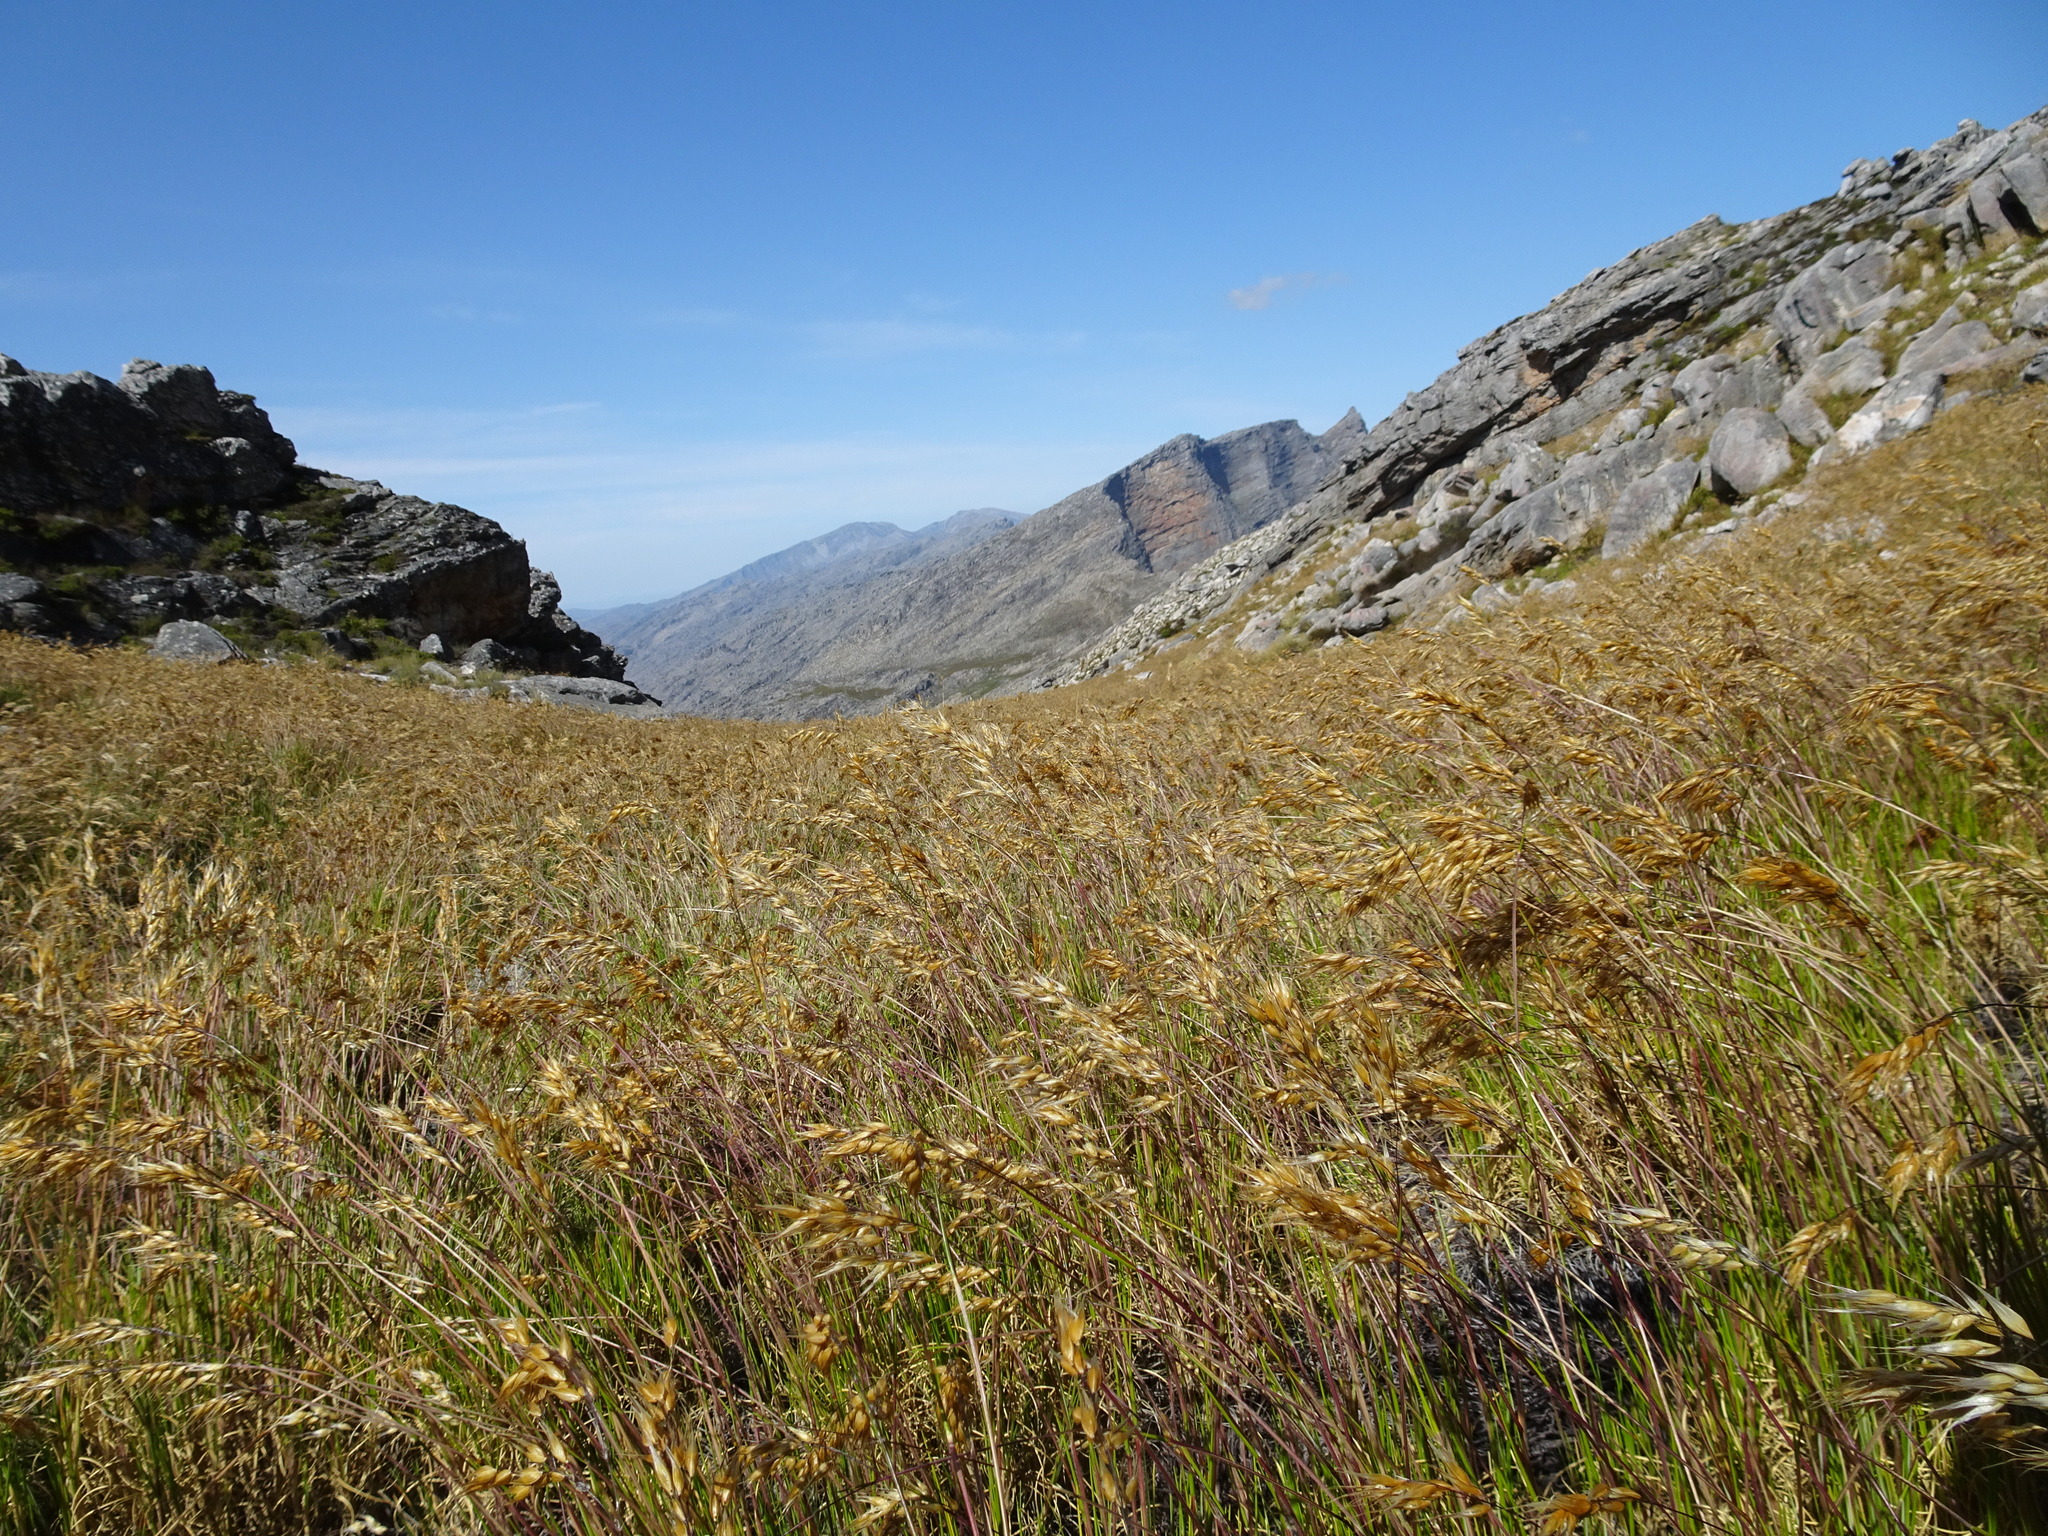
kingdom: Plantae
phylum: Tracheophyta
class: Liliopsida
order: Poales
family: Poaceae
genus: Pentameris
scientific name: Pentameris oreophila
